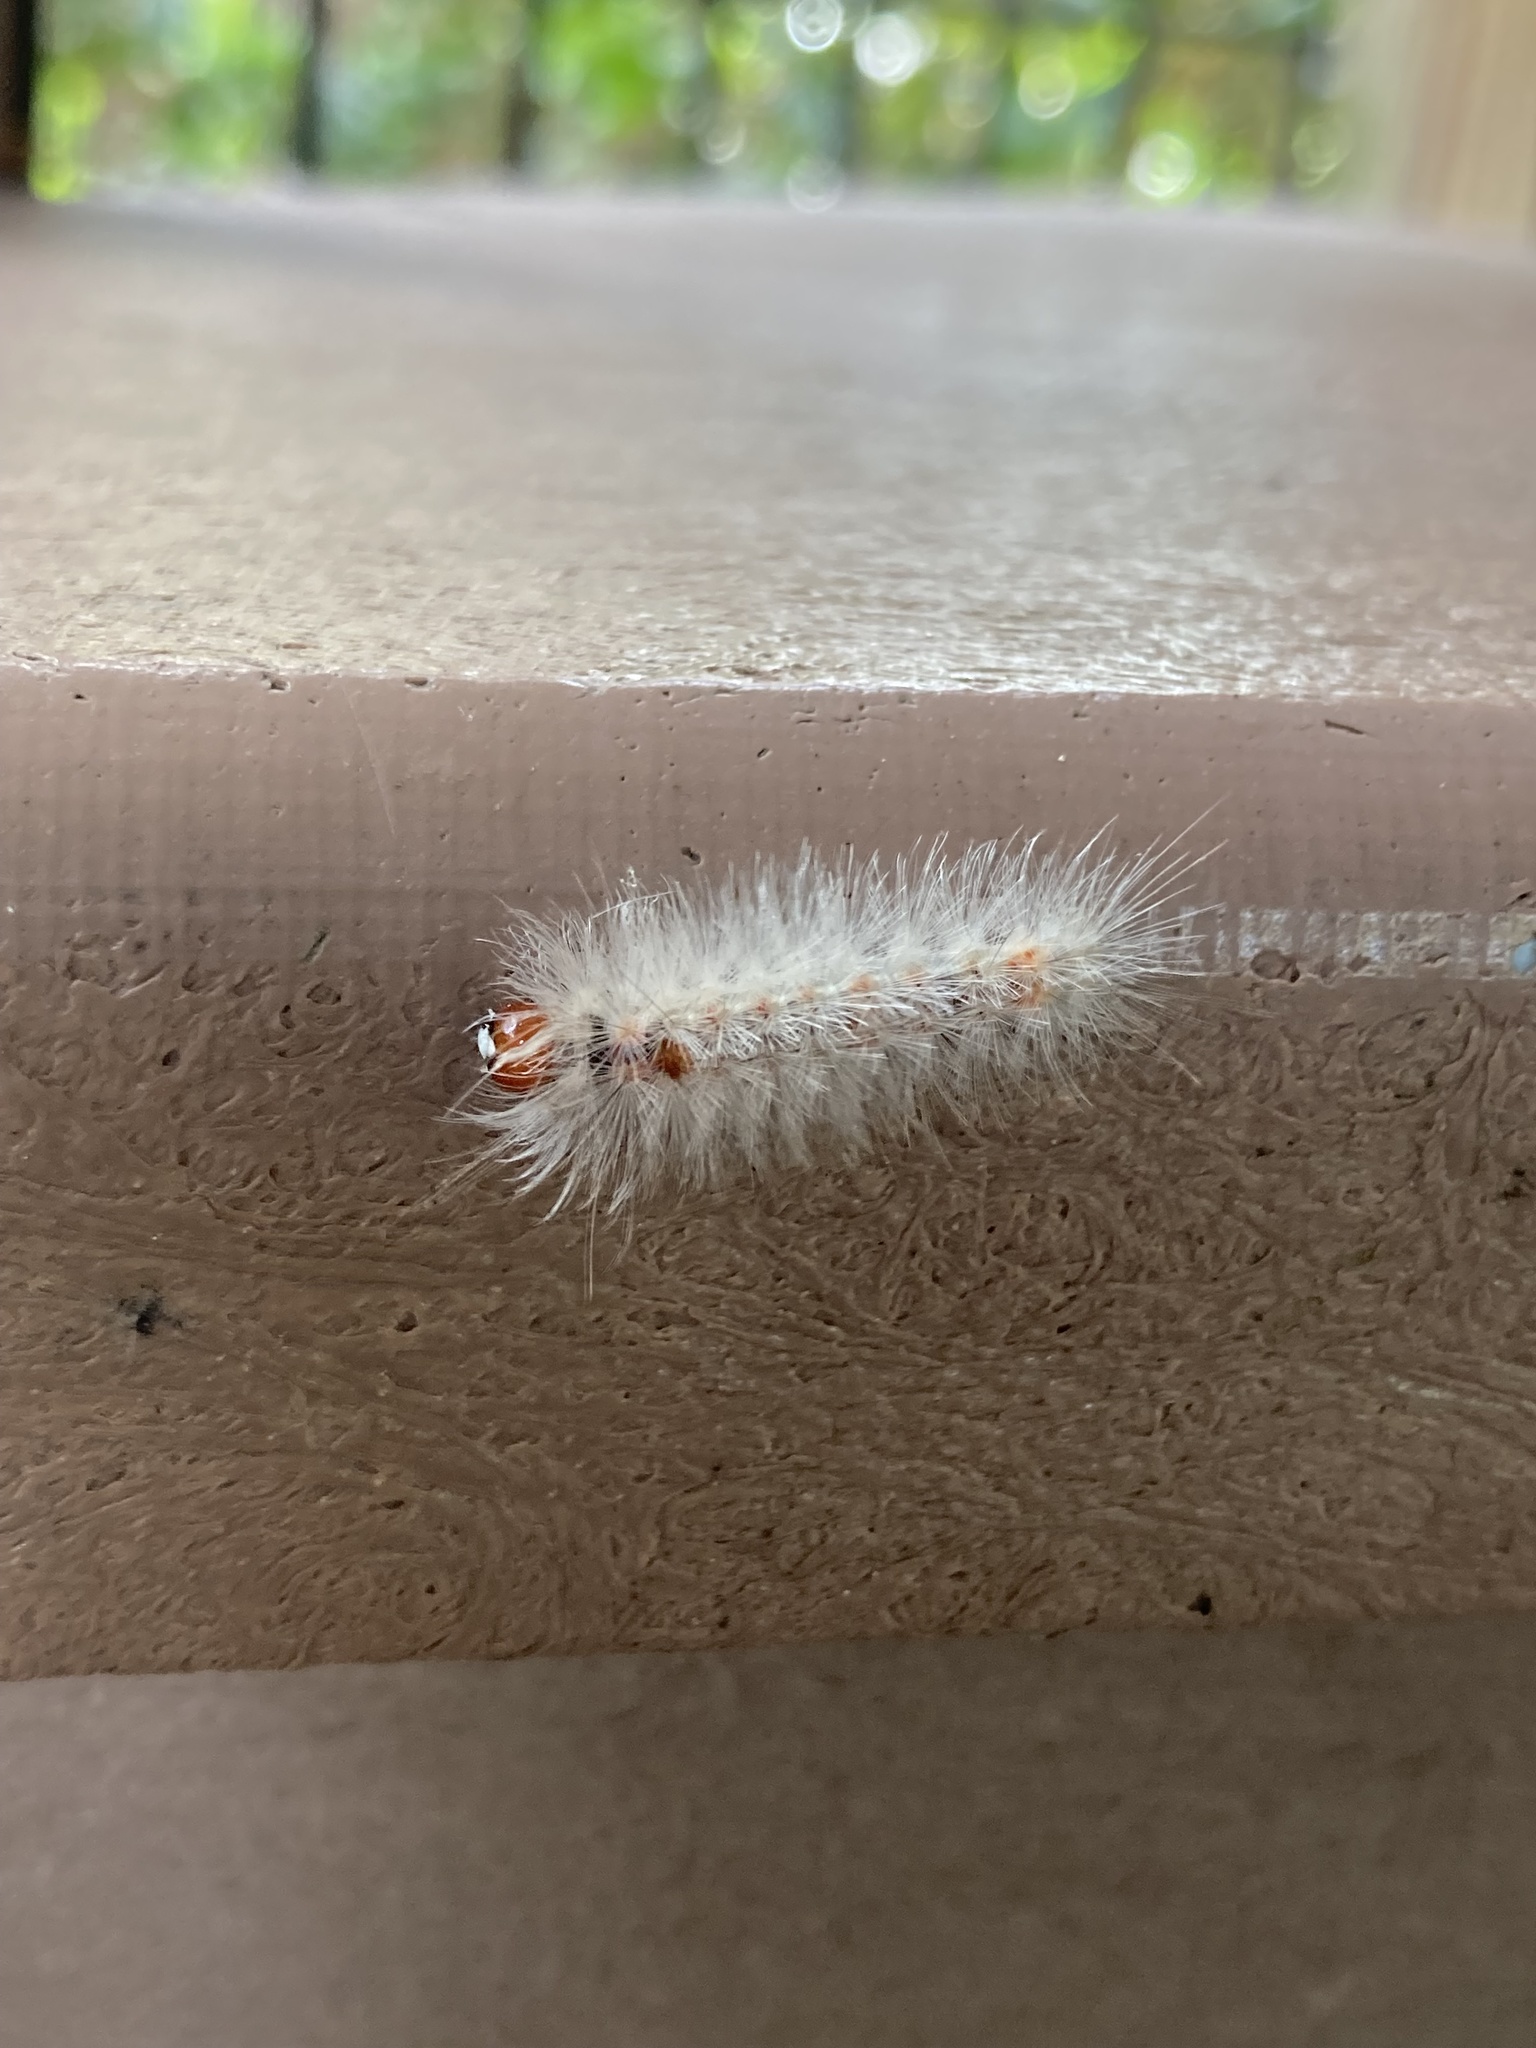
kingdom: Animalia
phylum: Arthropoda
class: Insecta
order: Lepidoptera
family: Erebidae
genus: Lymire
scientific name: Lymire edwardsii
